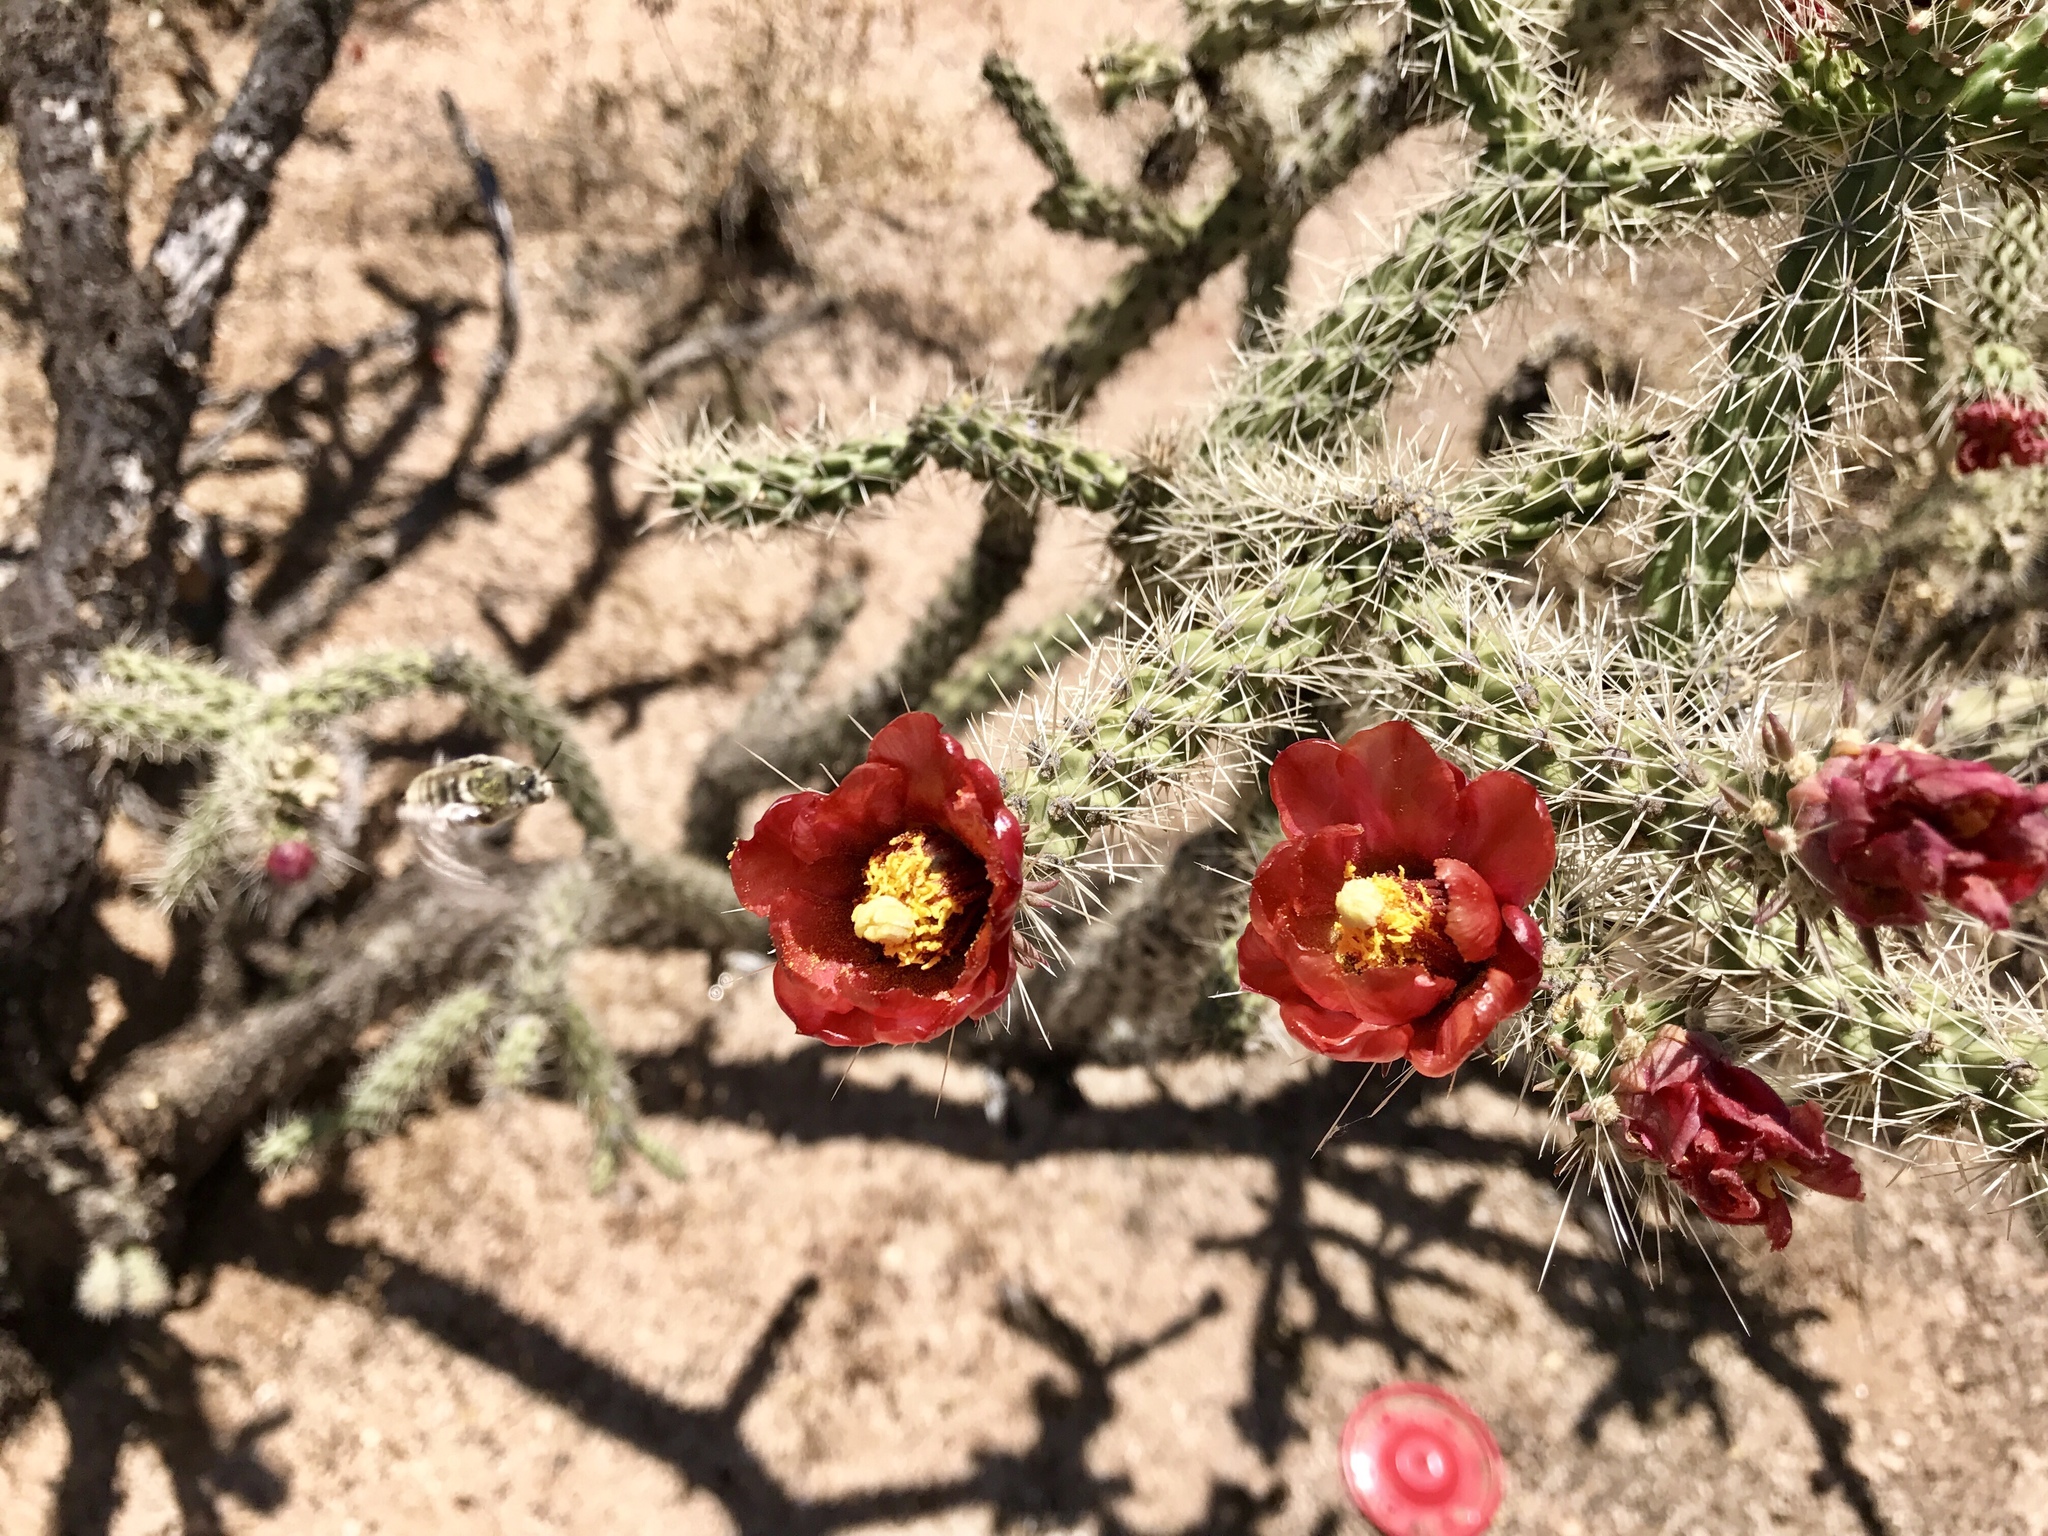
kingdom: Plantae
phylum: Tracheophyta
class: Magnoliopsida
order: Caryophyllales
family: Cactaceae
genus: Cylindropuntia
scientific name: Cylindropuntia acanthocarpa
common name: Buckhorn cholla
